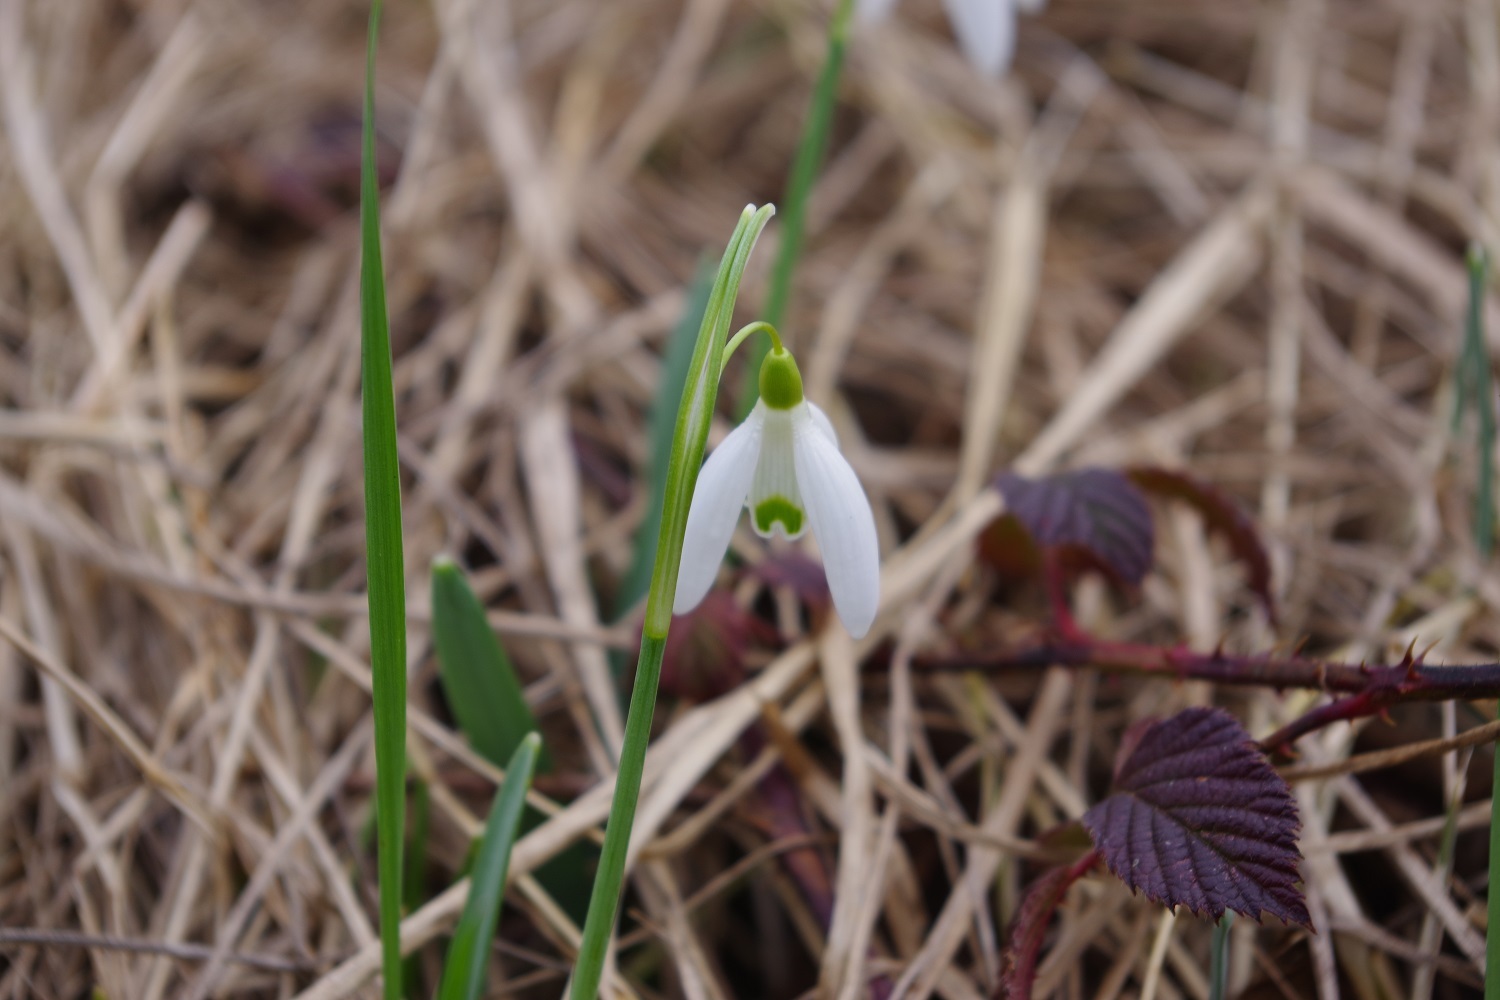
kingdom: Plantae
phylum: Tracheophyta
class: Liliopsida
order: Asparagales
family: Amaryllidaceae
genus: Galanthus
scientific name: Galanthus nivalis
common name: Snowdrop
